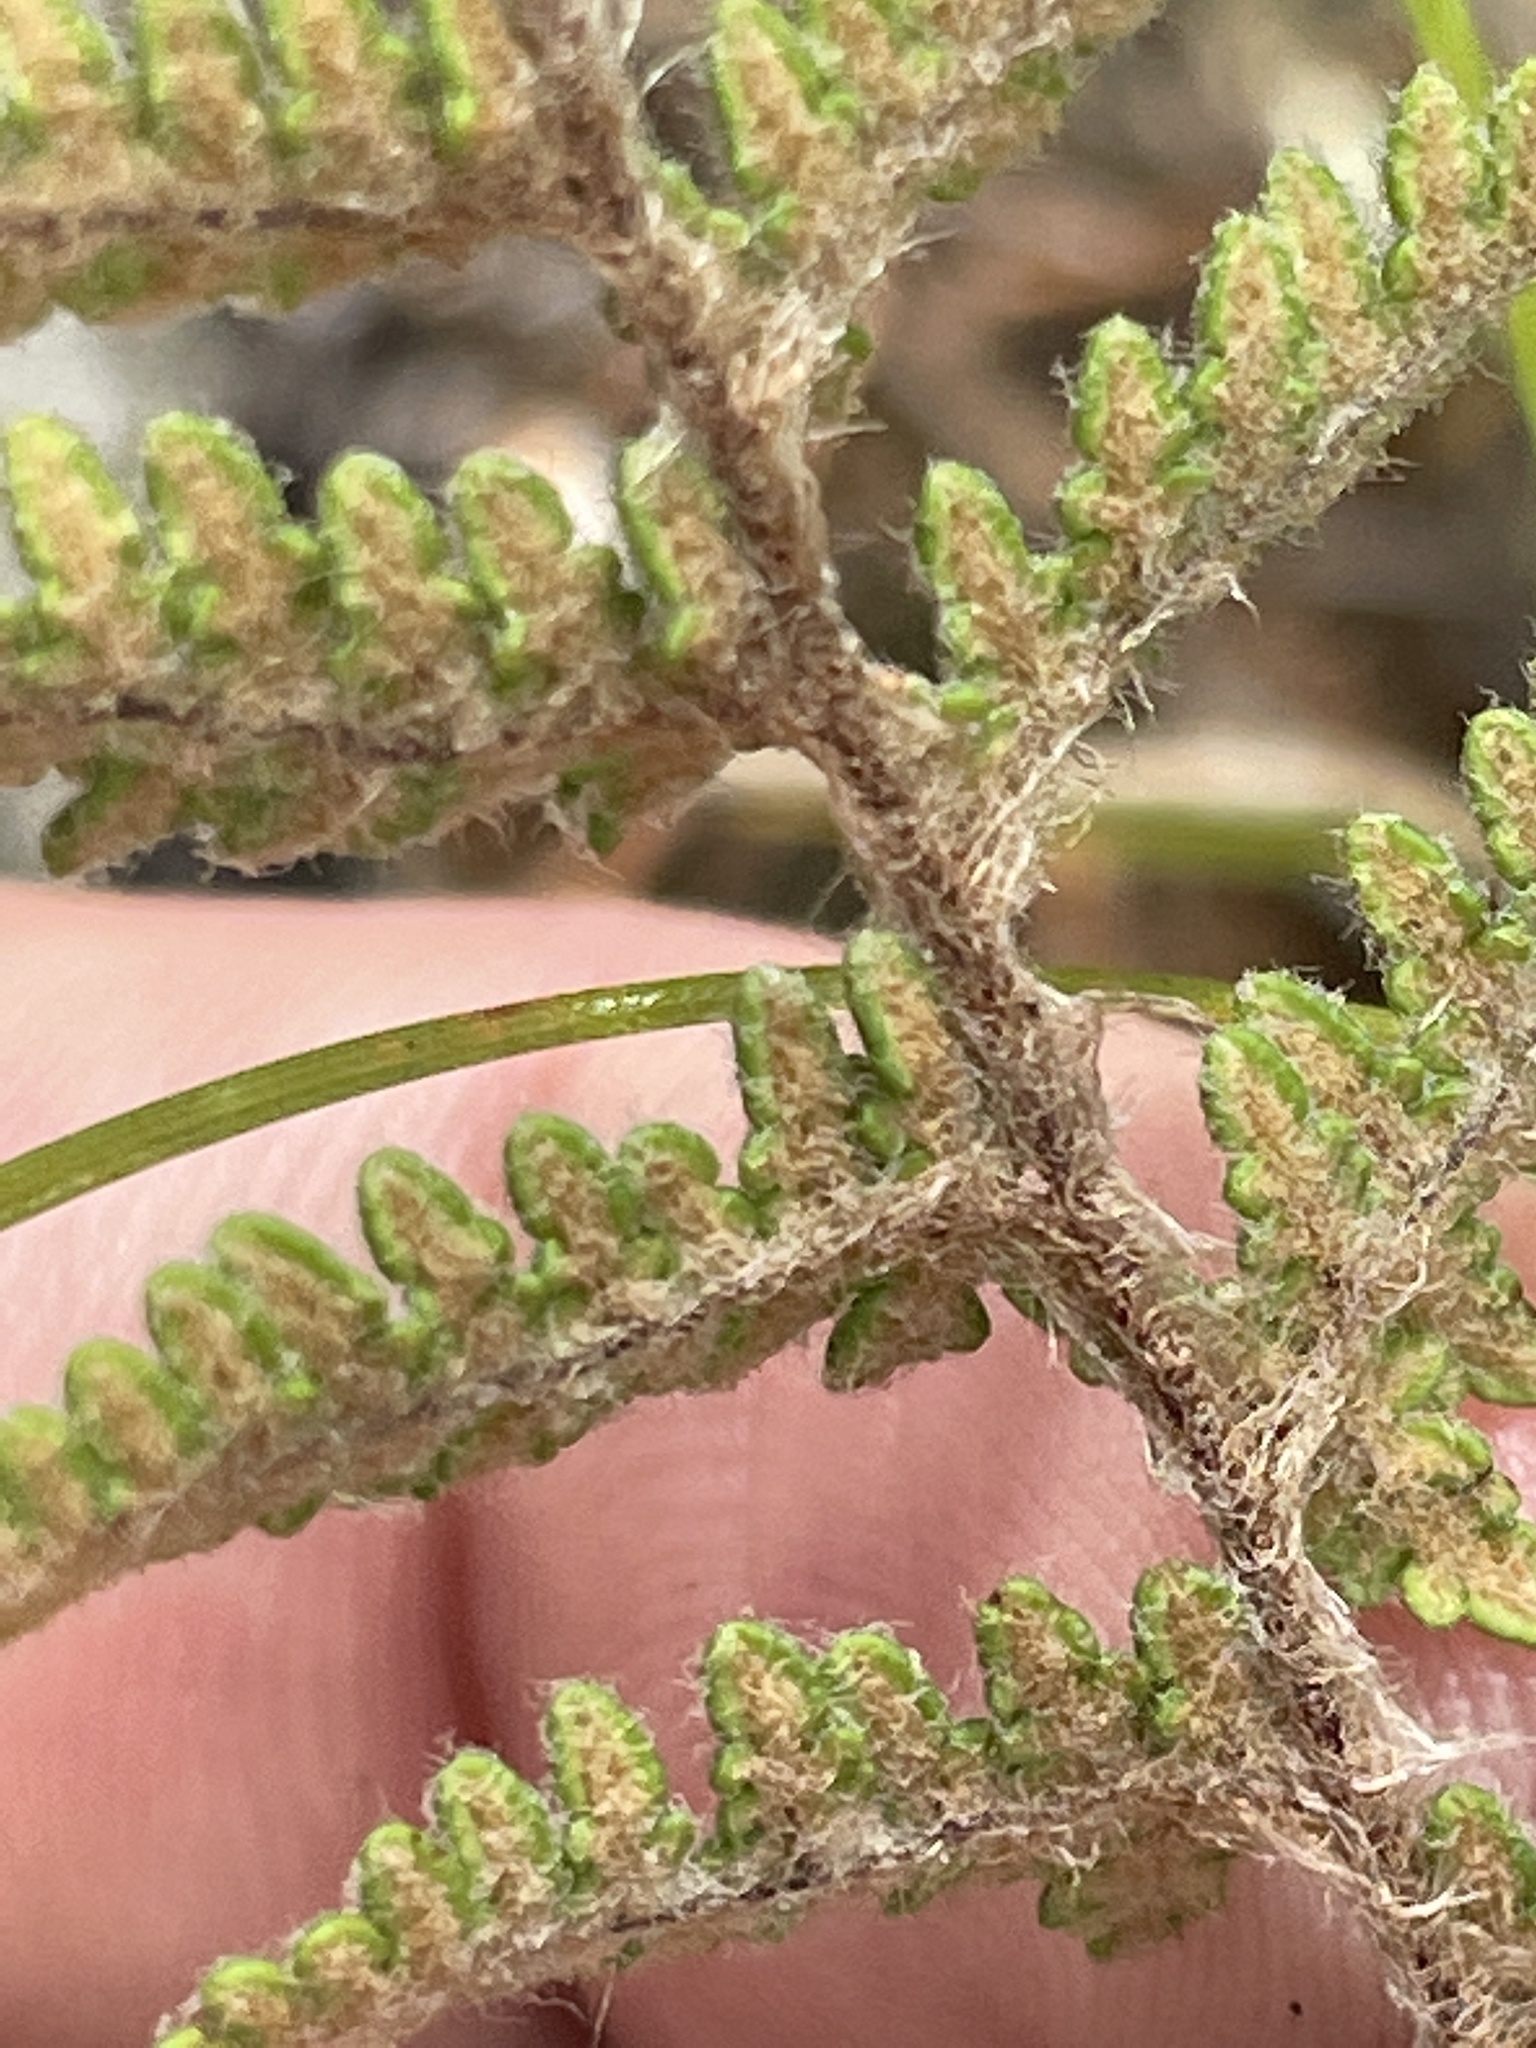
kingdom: Plantae
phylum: Tracheophyta
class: Polypodiopsida
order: Polypodiales
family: Pteridaceae
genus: Myriopteris
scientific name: Myriopteris tomentosa
